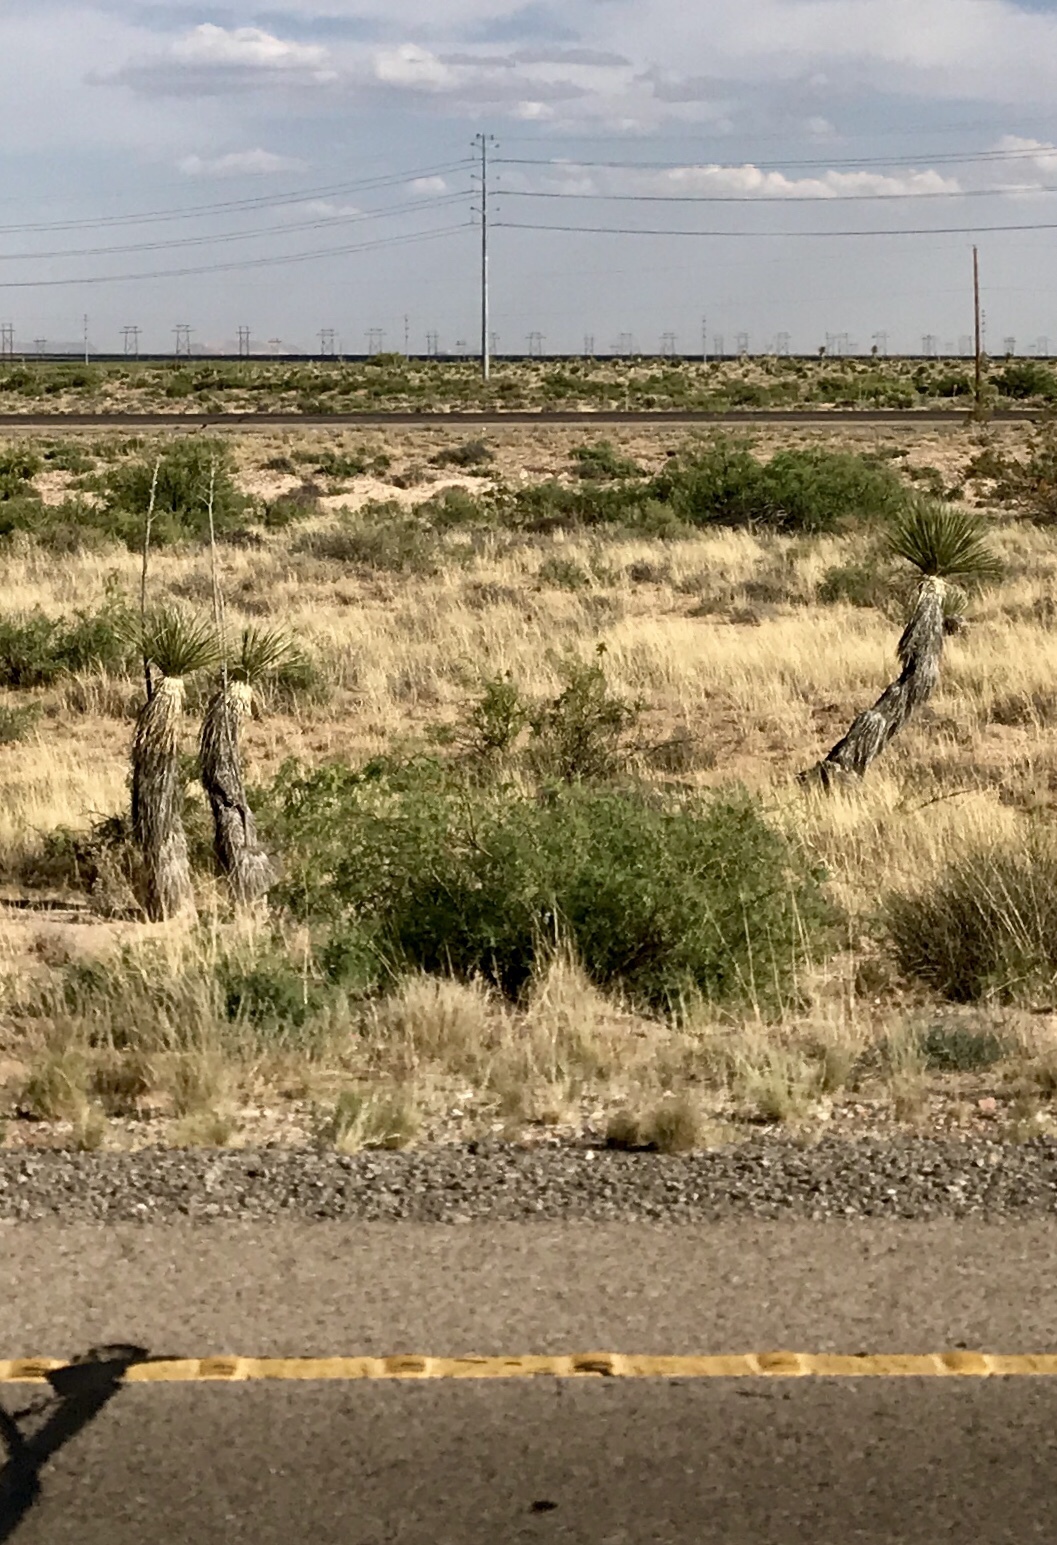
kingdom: Plantae
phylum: Tracheophyta
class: Liliopsida
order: Asparagales
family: Asparagaceae
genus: Yucca
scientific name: Yucca elata
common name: Palmella
